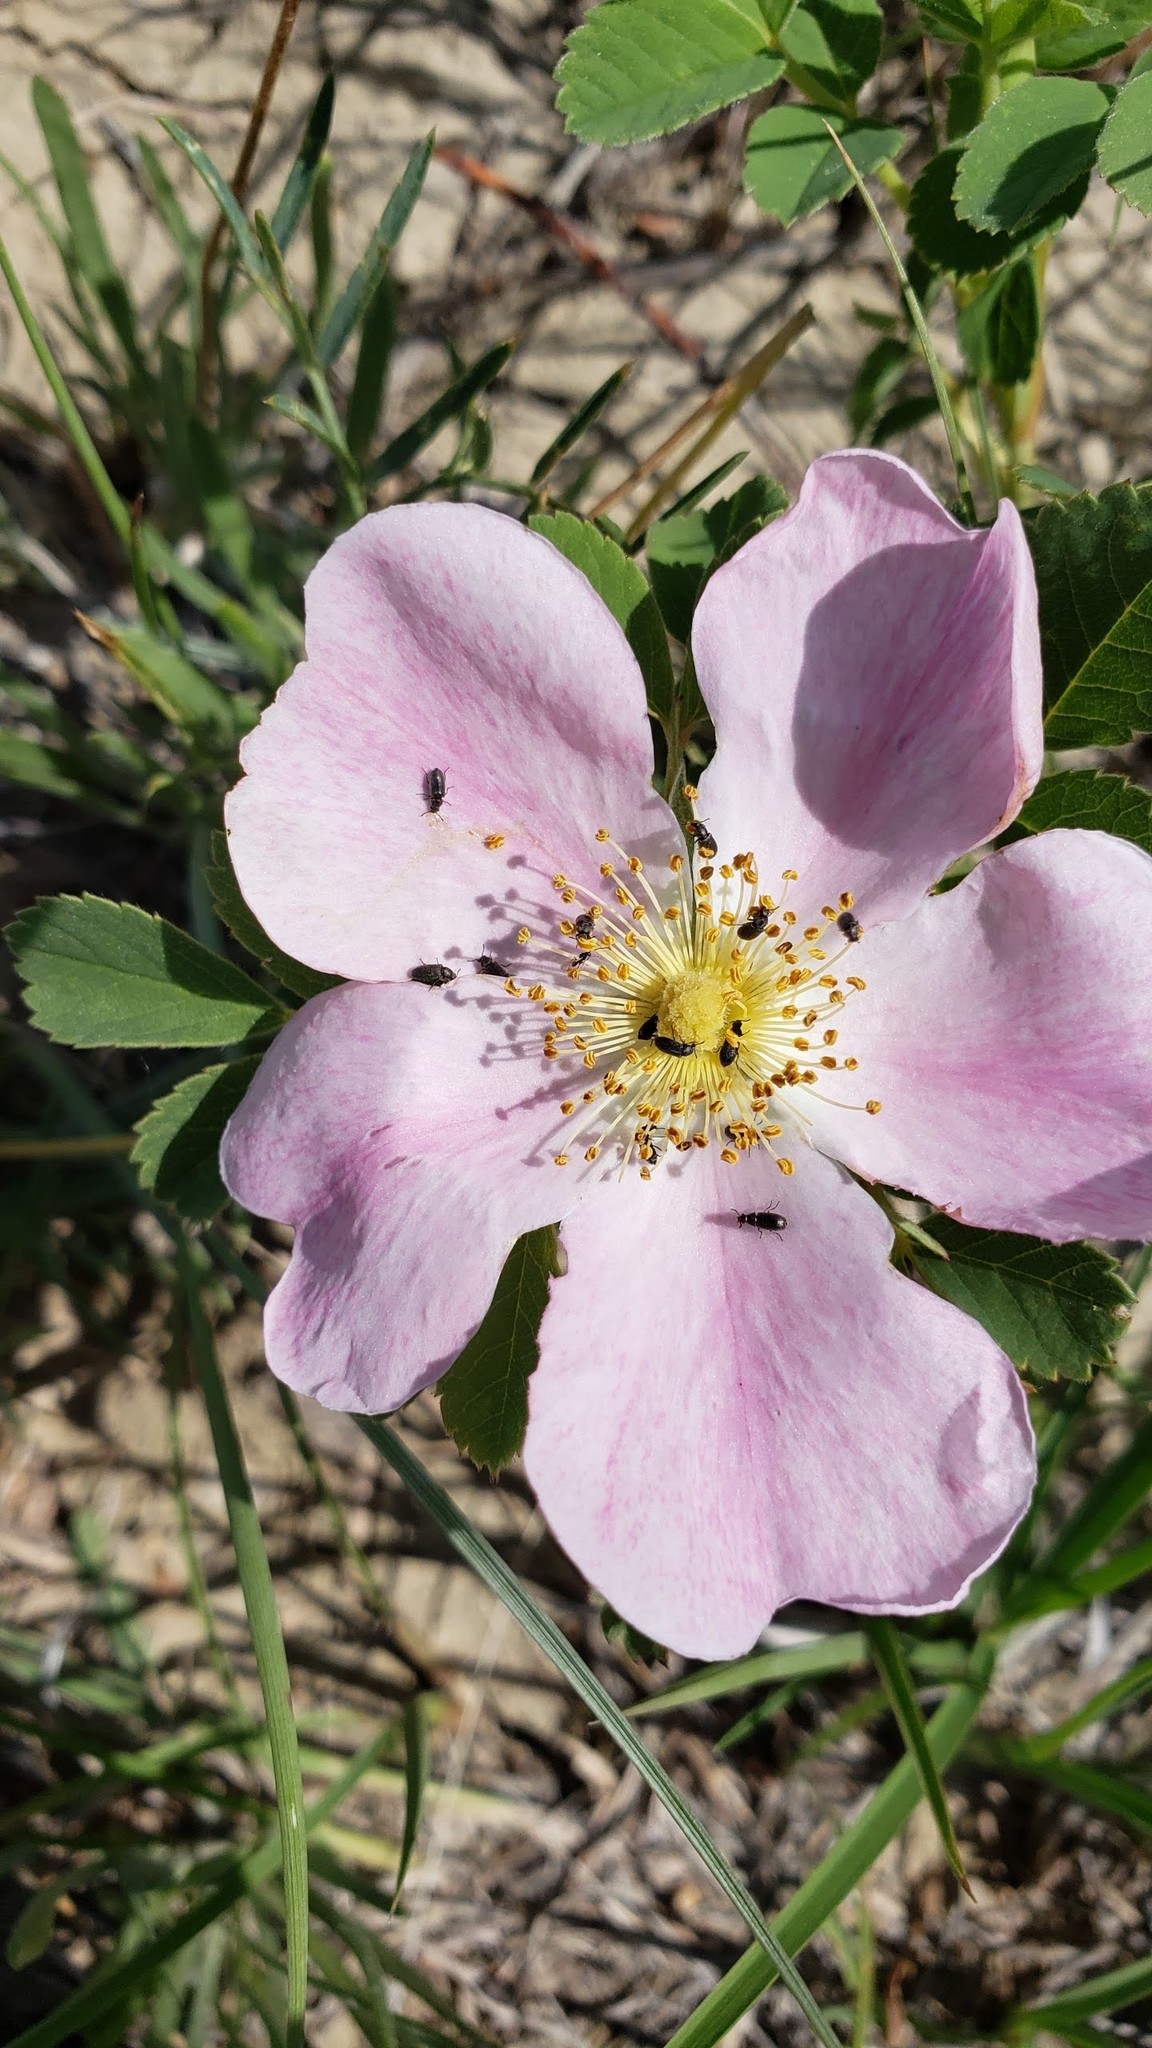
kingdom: Plantae
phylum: Tracheophyta
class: Magnoliopsida
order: Rosales
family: Rosaceae
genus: Rosa
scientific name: Rosa arkansana
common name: Prairie rose
